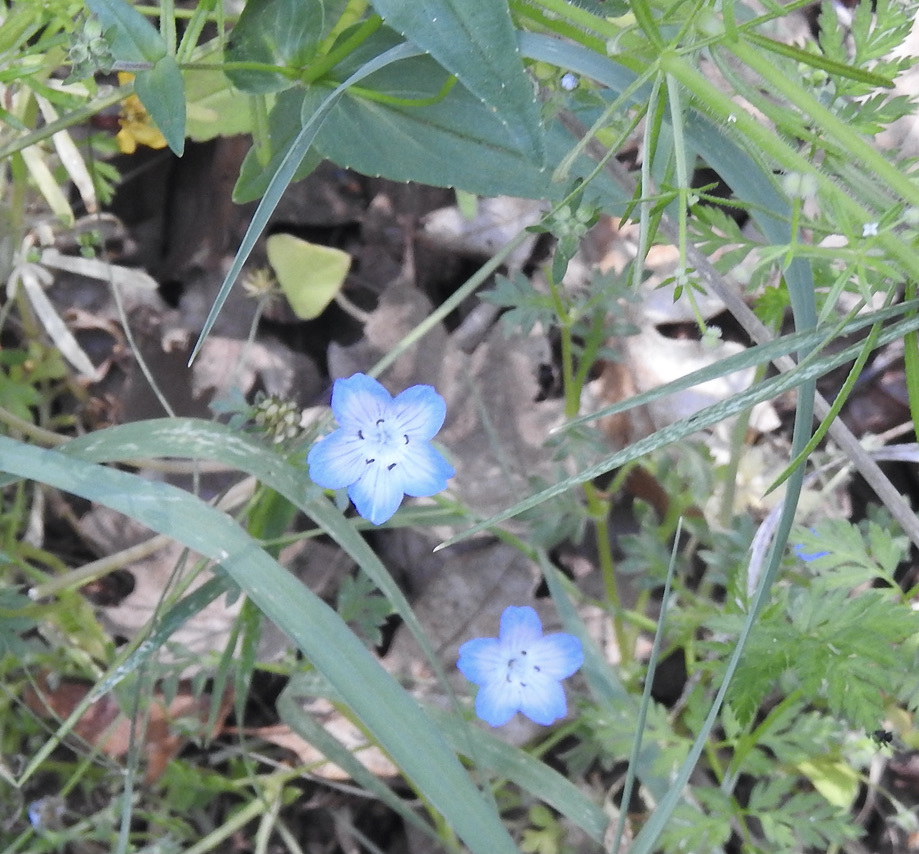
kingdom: Plantae
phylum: Tracheophyta
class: Magnoliopsida
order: Boraginales
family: Hydrophyllaceae
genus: Nemophila
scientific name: Nemophila menziesii
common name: Baby's-blue-eyes
